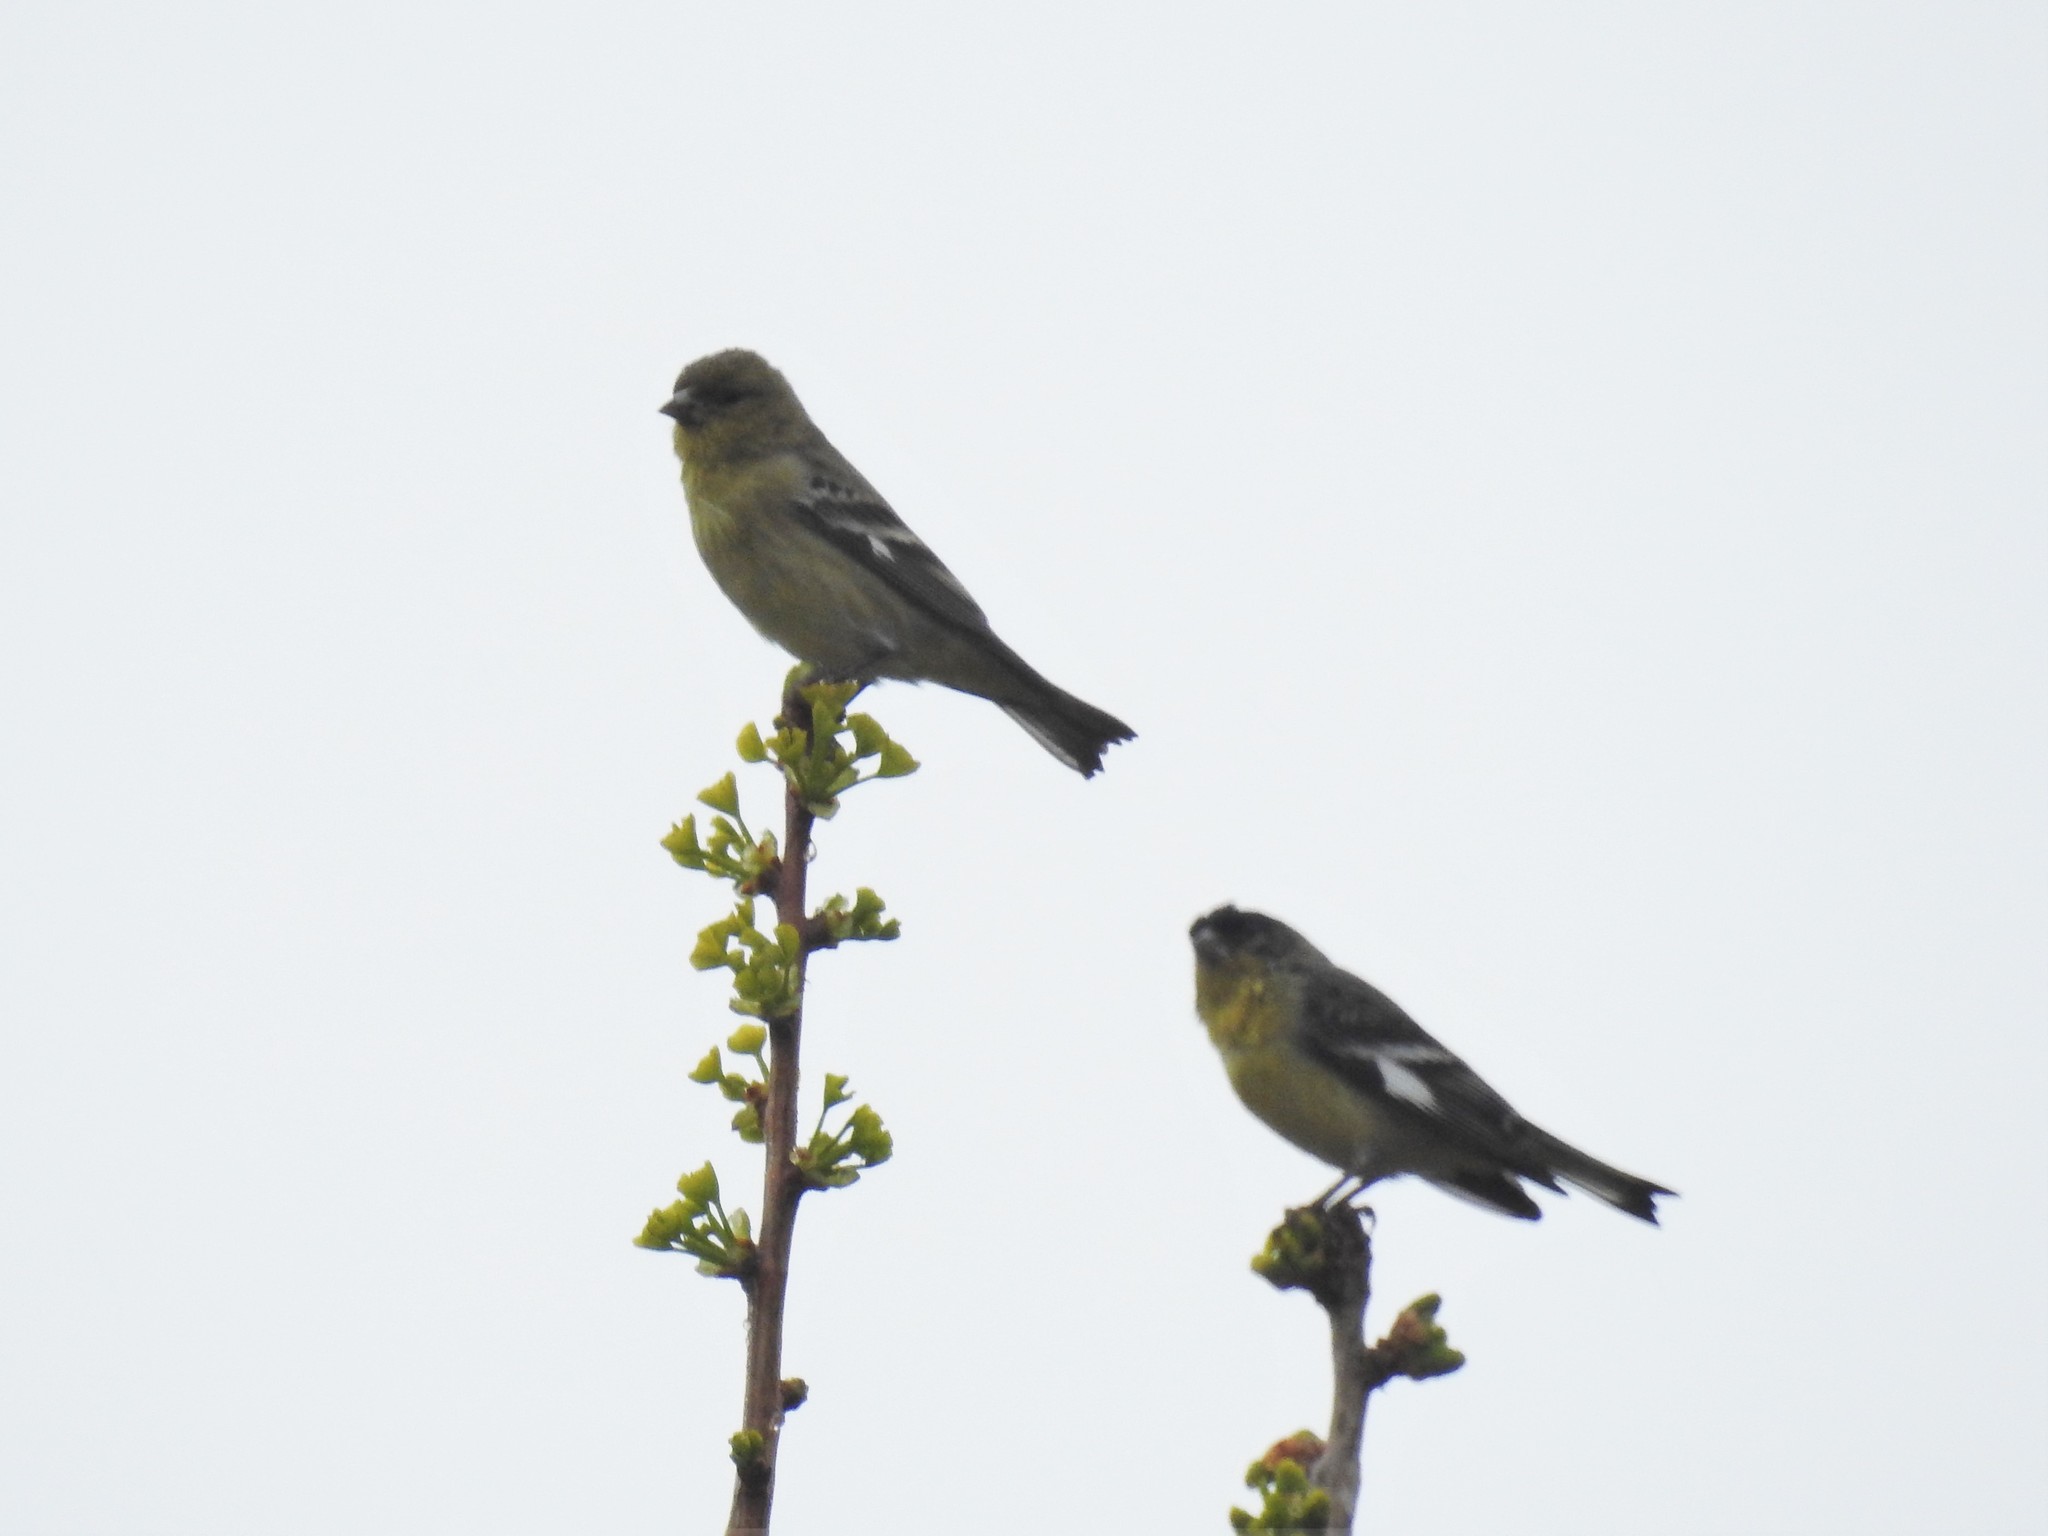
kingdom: Animalia
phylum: Chordata
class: Aves
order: Passeriformes
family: Fringillidae
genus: Spinus
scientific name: Spinus psaltria
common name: Lesser goldfinch
